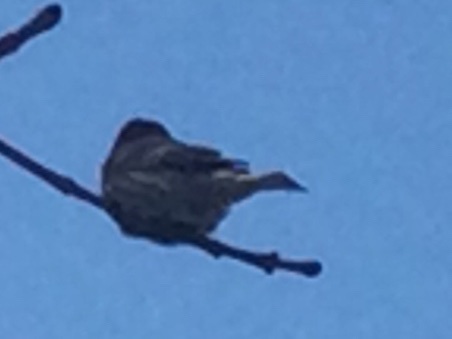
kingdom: Animalia
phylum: Chordata
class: Aves
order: Passeriformes
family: Fringillidae
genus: Haemorhous
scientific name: Haemorhous mexicanus
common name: House finch
